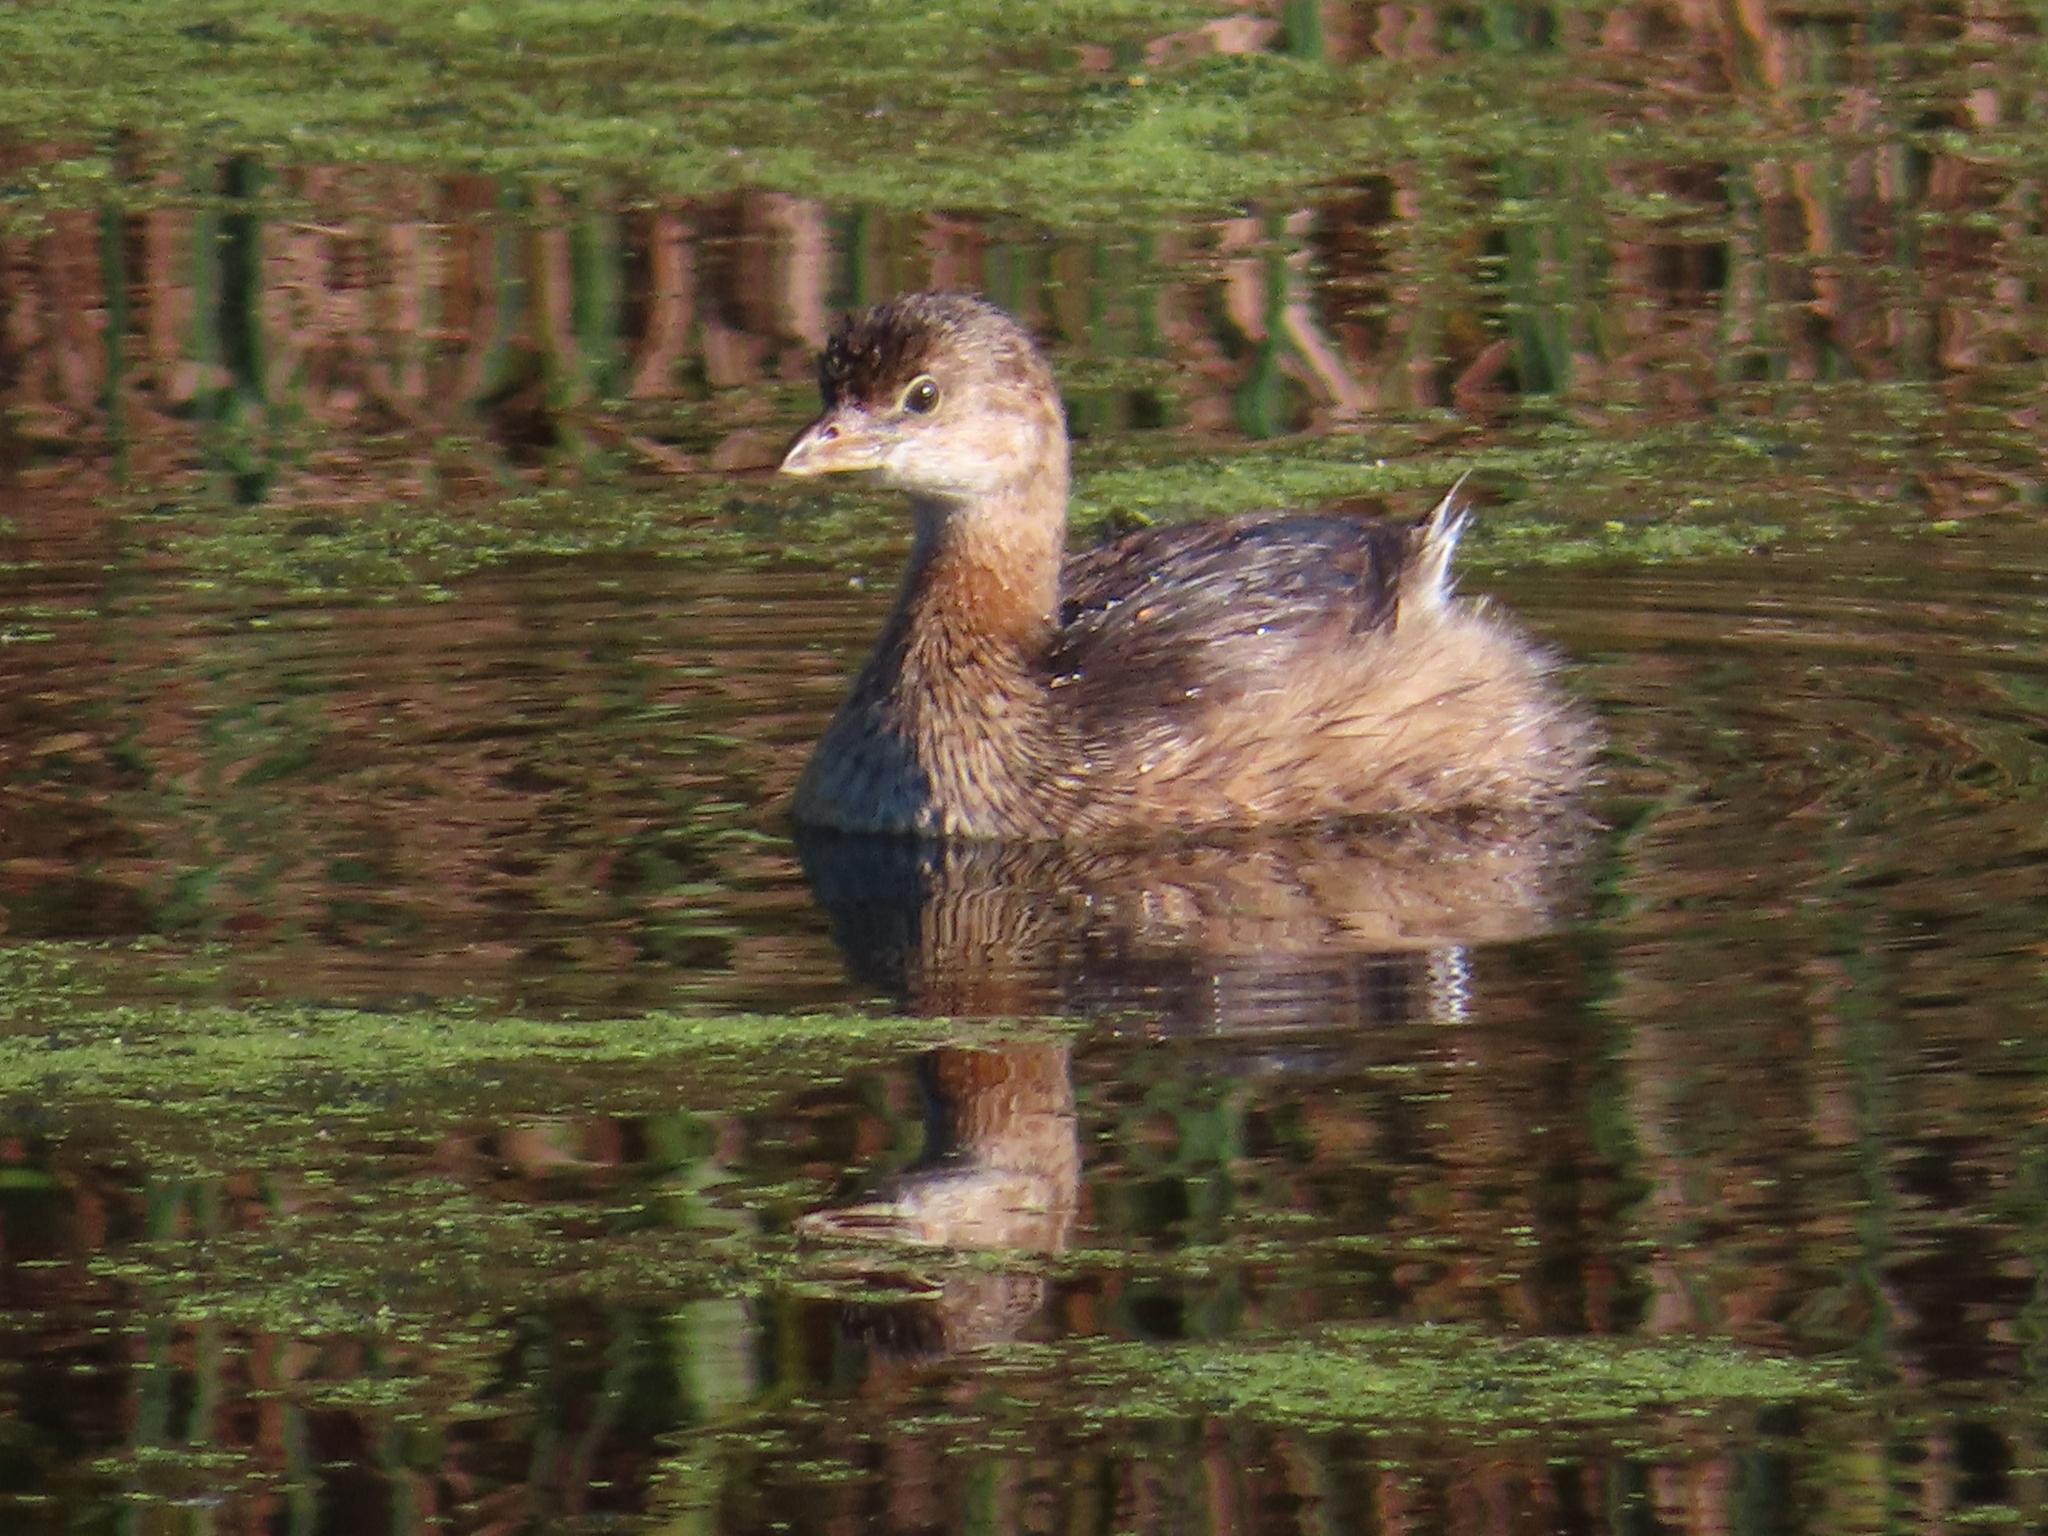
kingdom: Animalia
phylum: Chordata
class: Aves
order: Podicipediformes
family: Podicipedidae
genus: Podilymbus
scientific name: Podilymbus podiceps
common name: Pied-billed grebe
